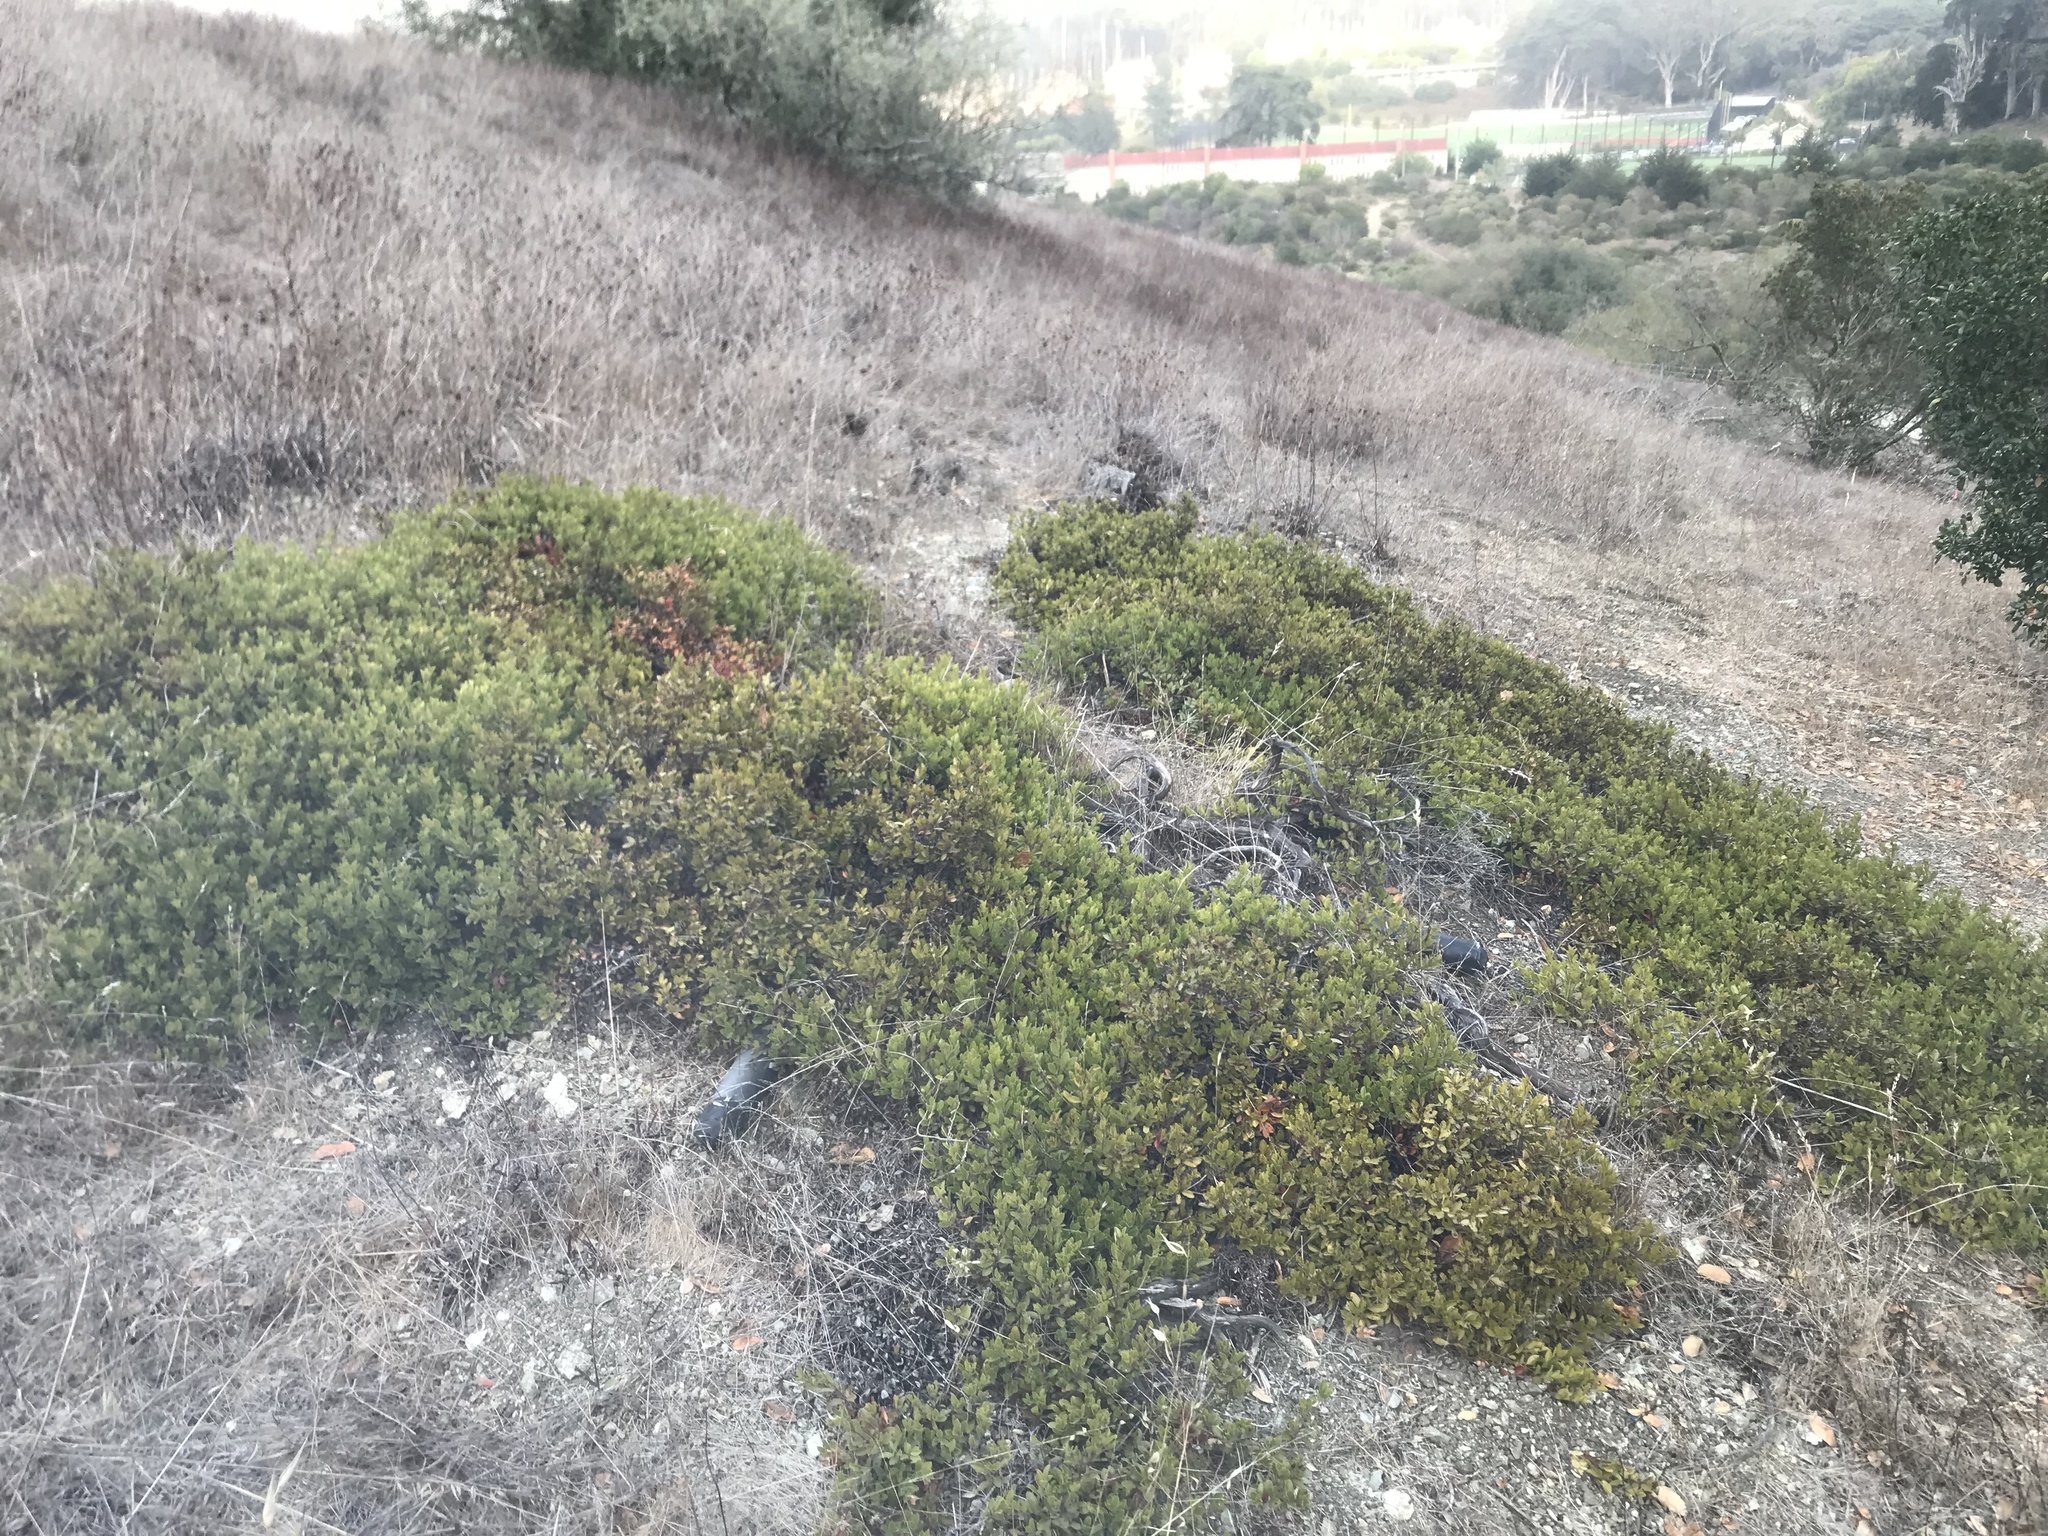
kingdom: Plantae
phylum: Tracheophyta
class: Magnoliopsida
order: Ericales
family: Ericaceae
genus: Arctostaphylos
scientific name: Arctostaphylos franciscana
